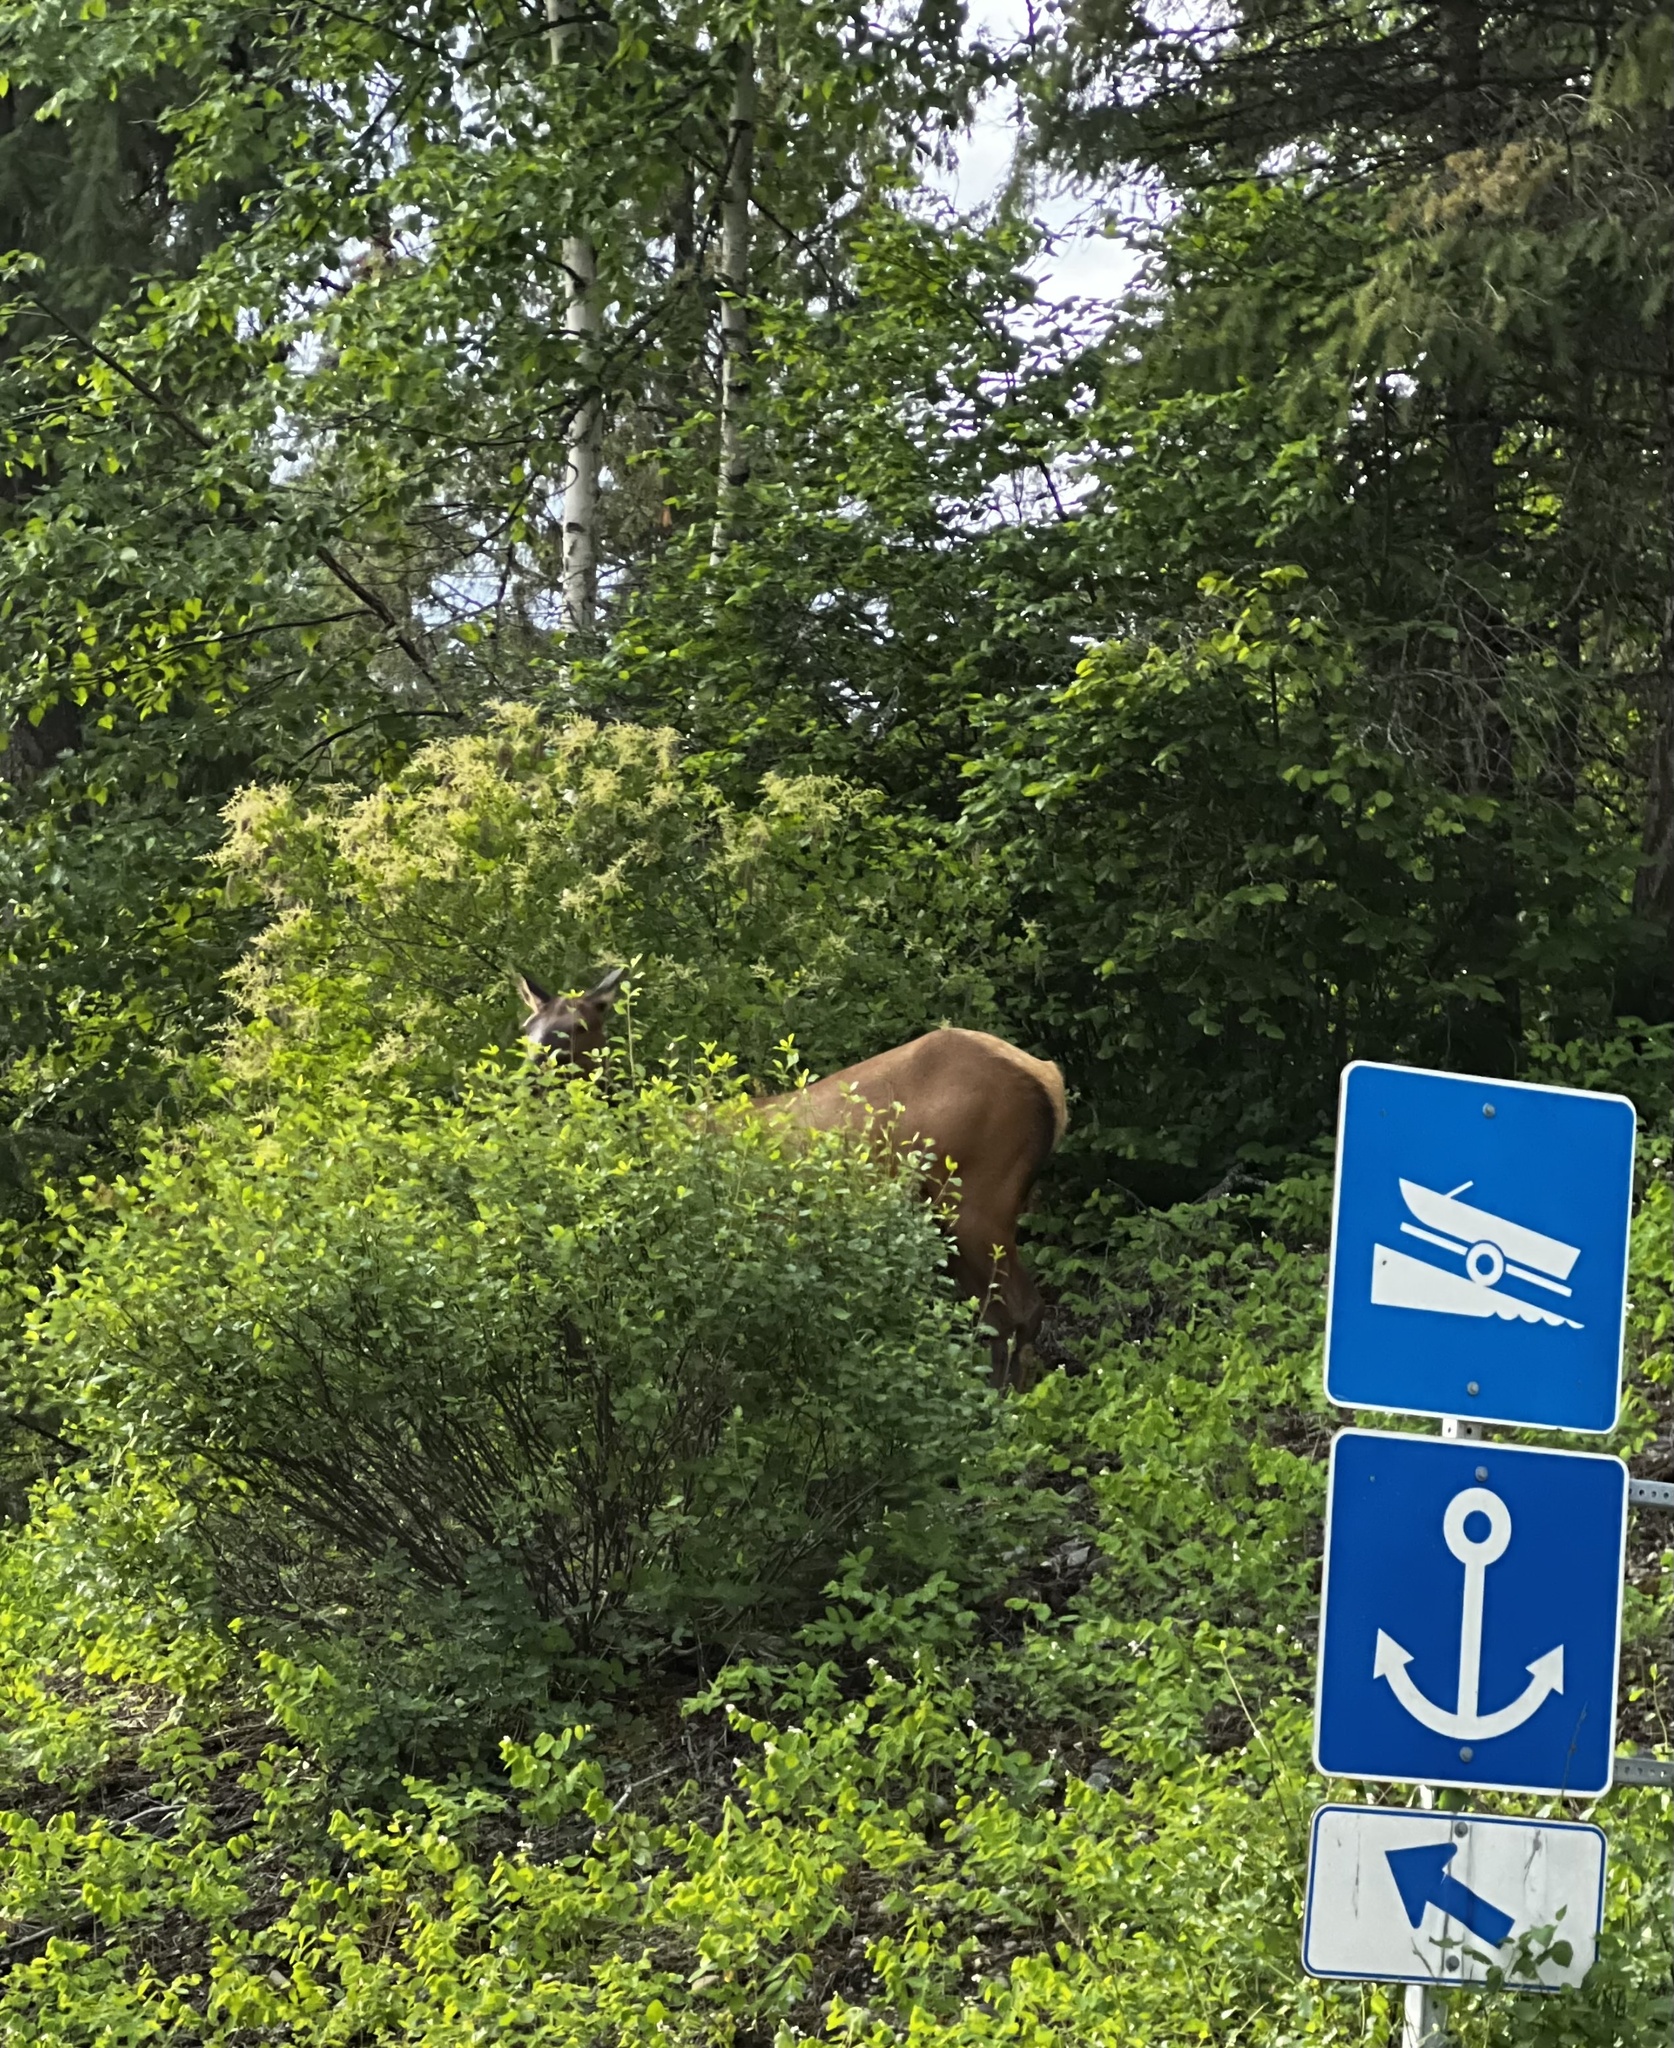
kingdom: Animalia
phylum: Chordata
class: Mammalia
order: Artiodactyla
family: Cervidae
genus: Cervus
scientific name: Cervus elaphus
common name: Red deer
